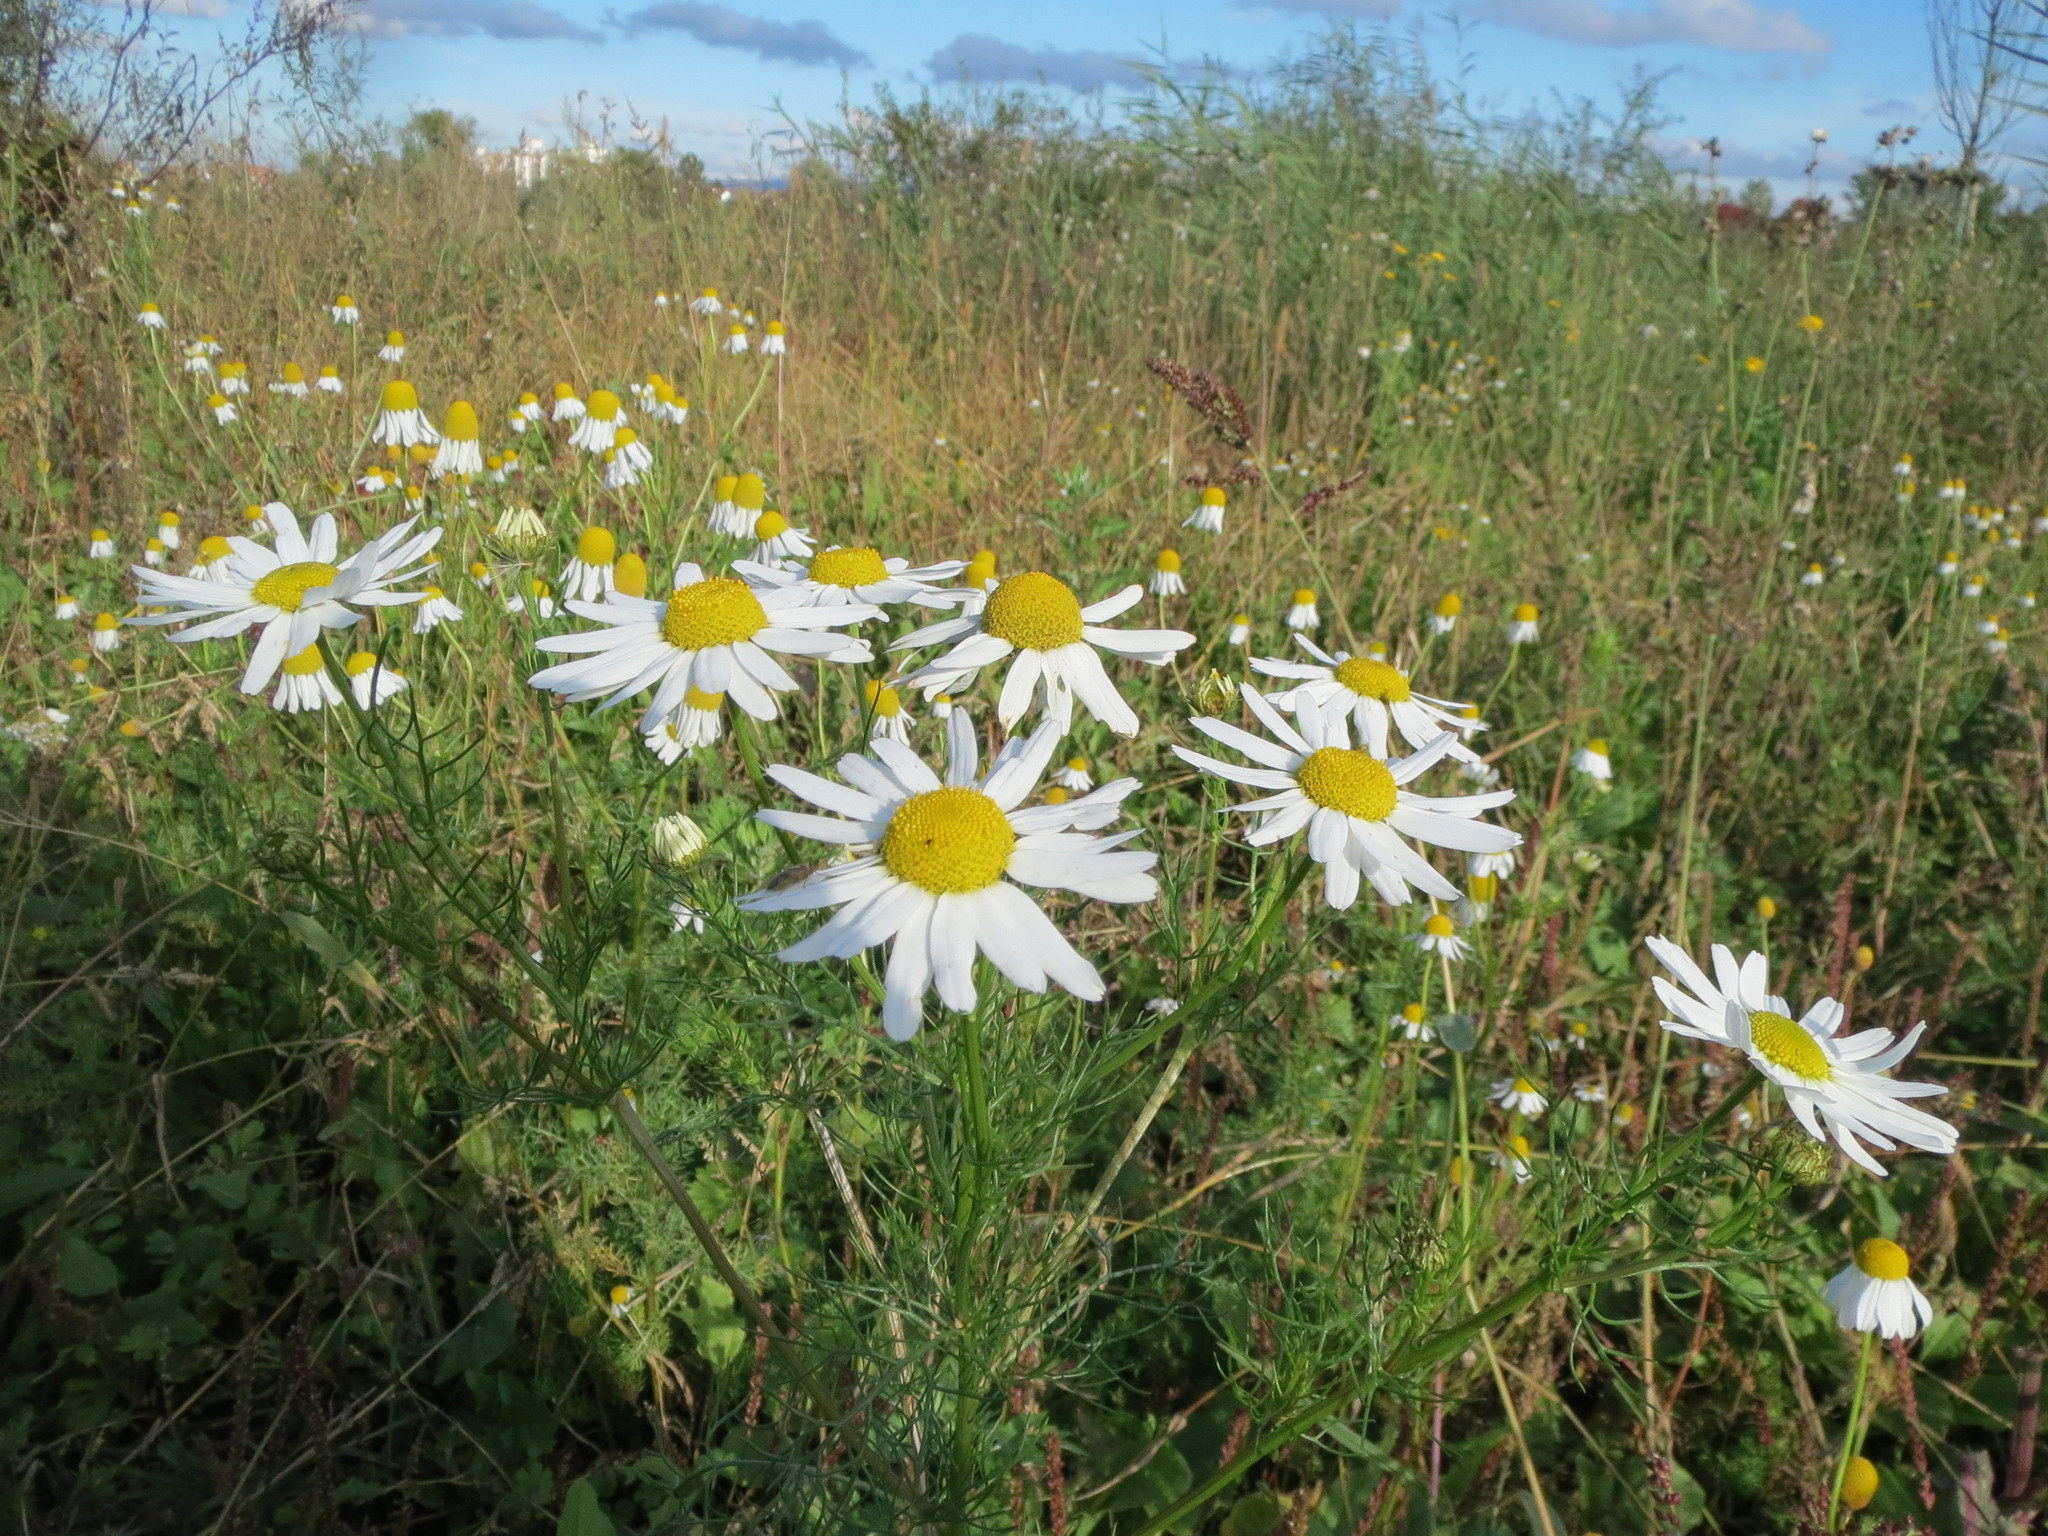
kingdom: Plantae
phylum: Tracheophyta
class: Magnoliopsida
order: Asterales
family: Asteraceae
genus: Tripleurospermum
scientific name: Tripleurospermum inodorum
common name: Scentless mayweed
